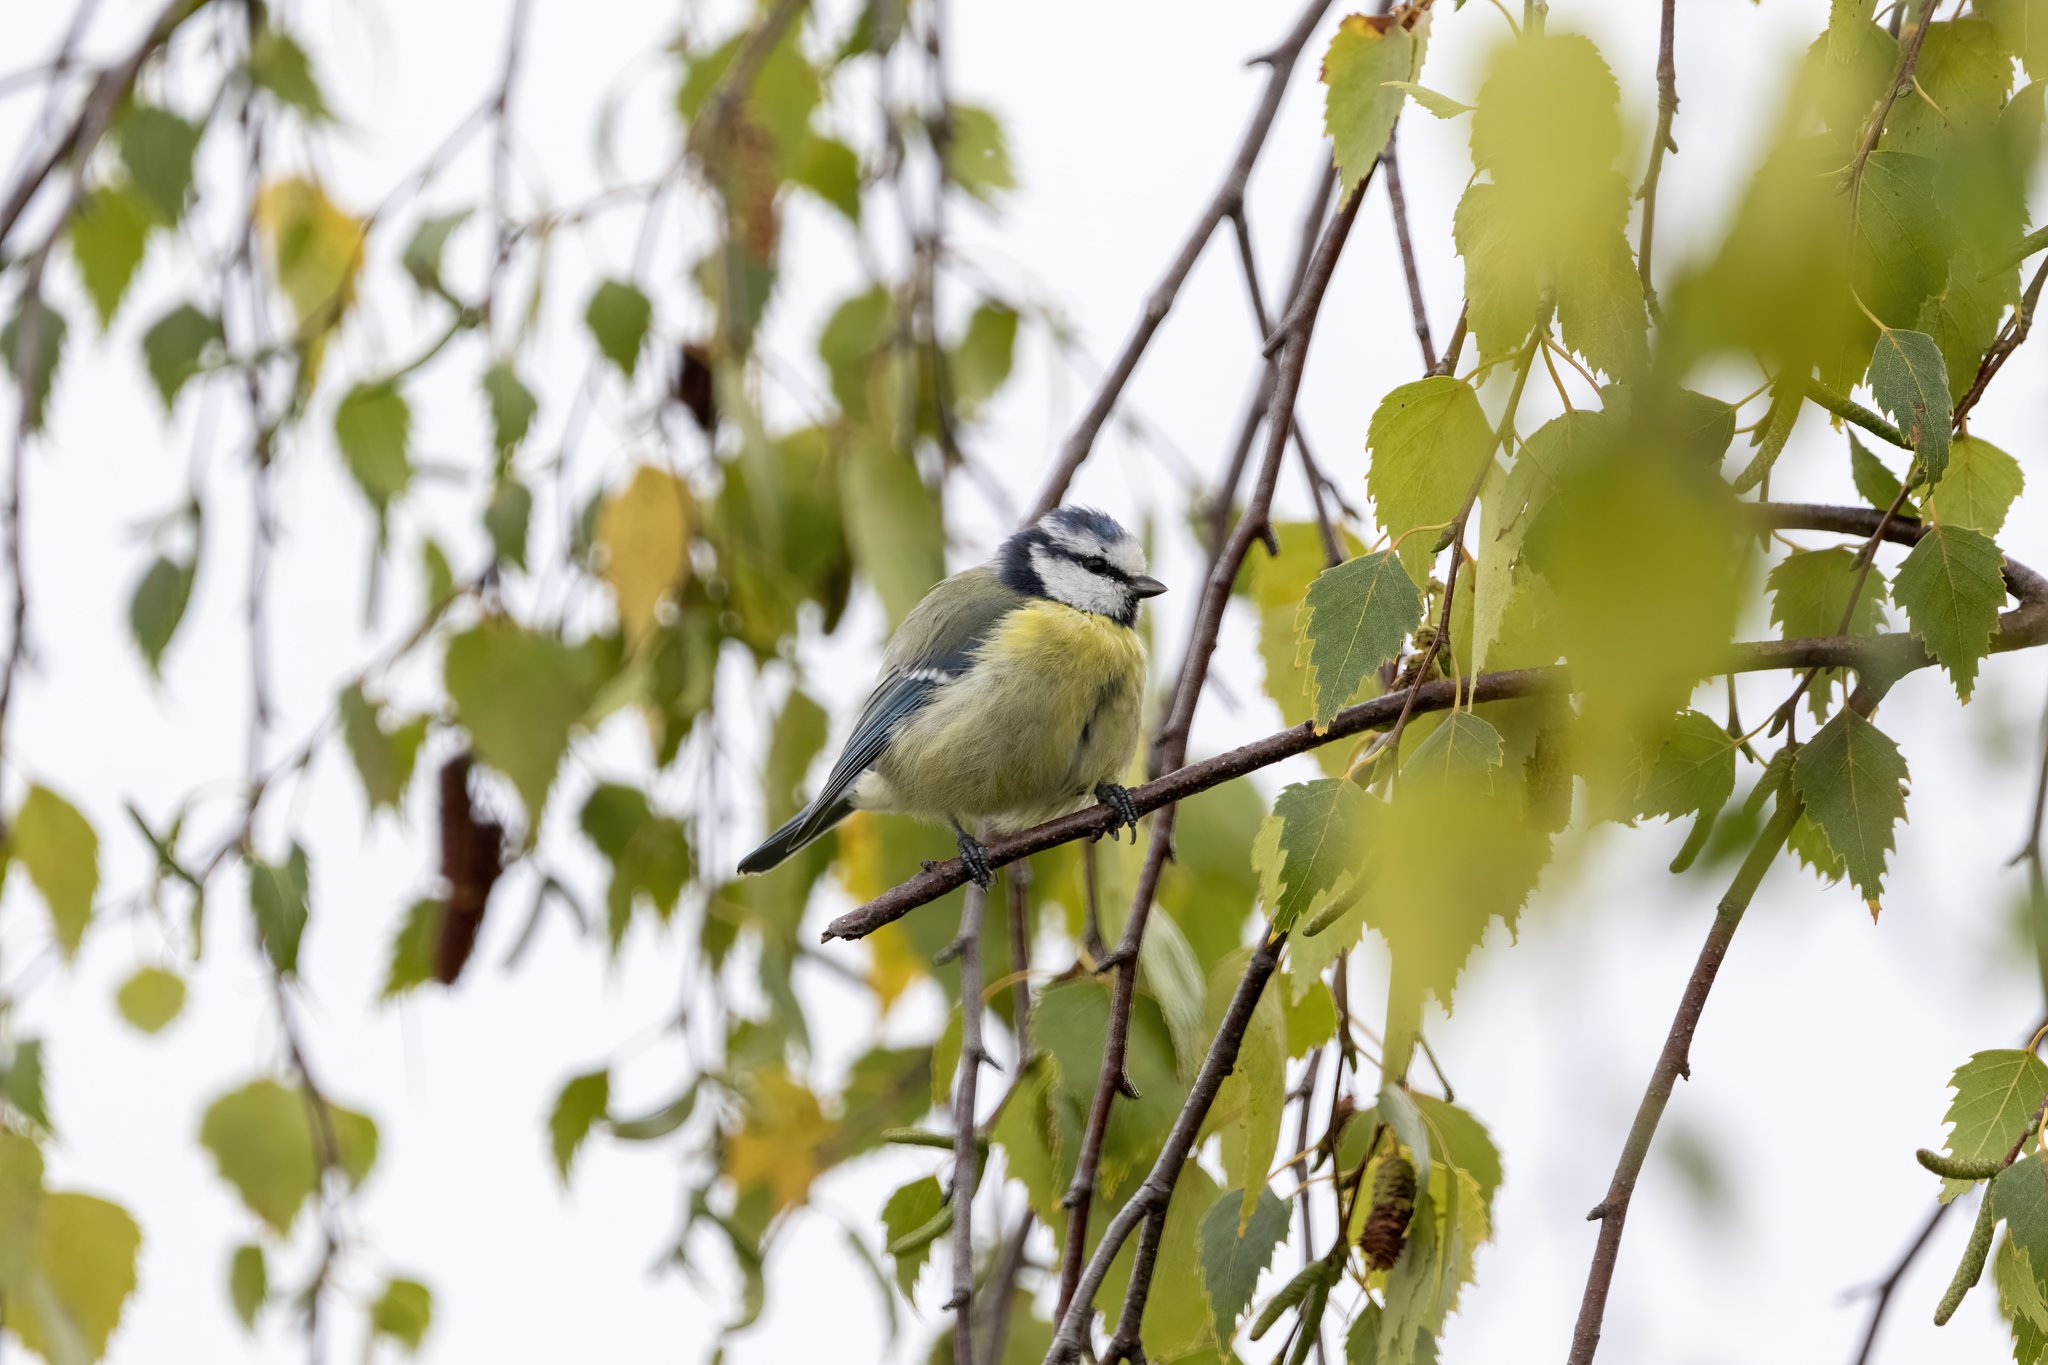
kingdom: Animalia
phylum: Chordata
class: Aves
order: Passeriformes
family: Paridae
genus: Cyanistes
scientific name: Cyanistes caeruleus
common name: Eurasian blue tit
